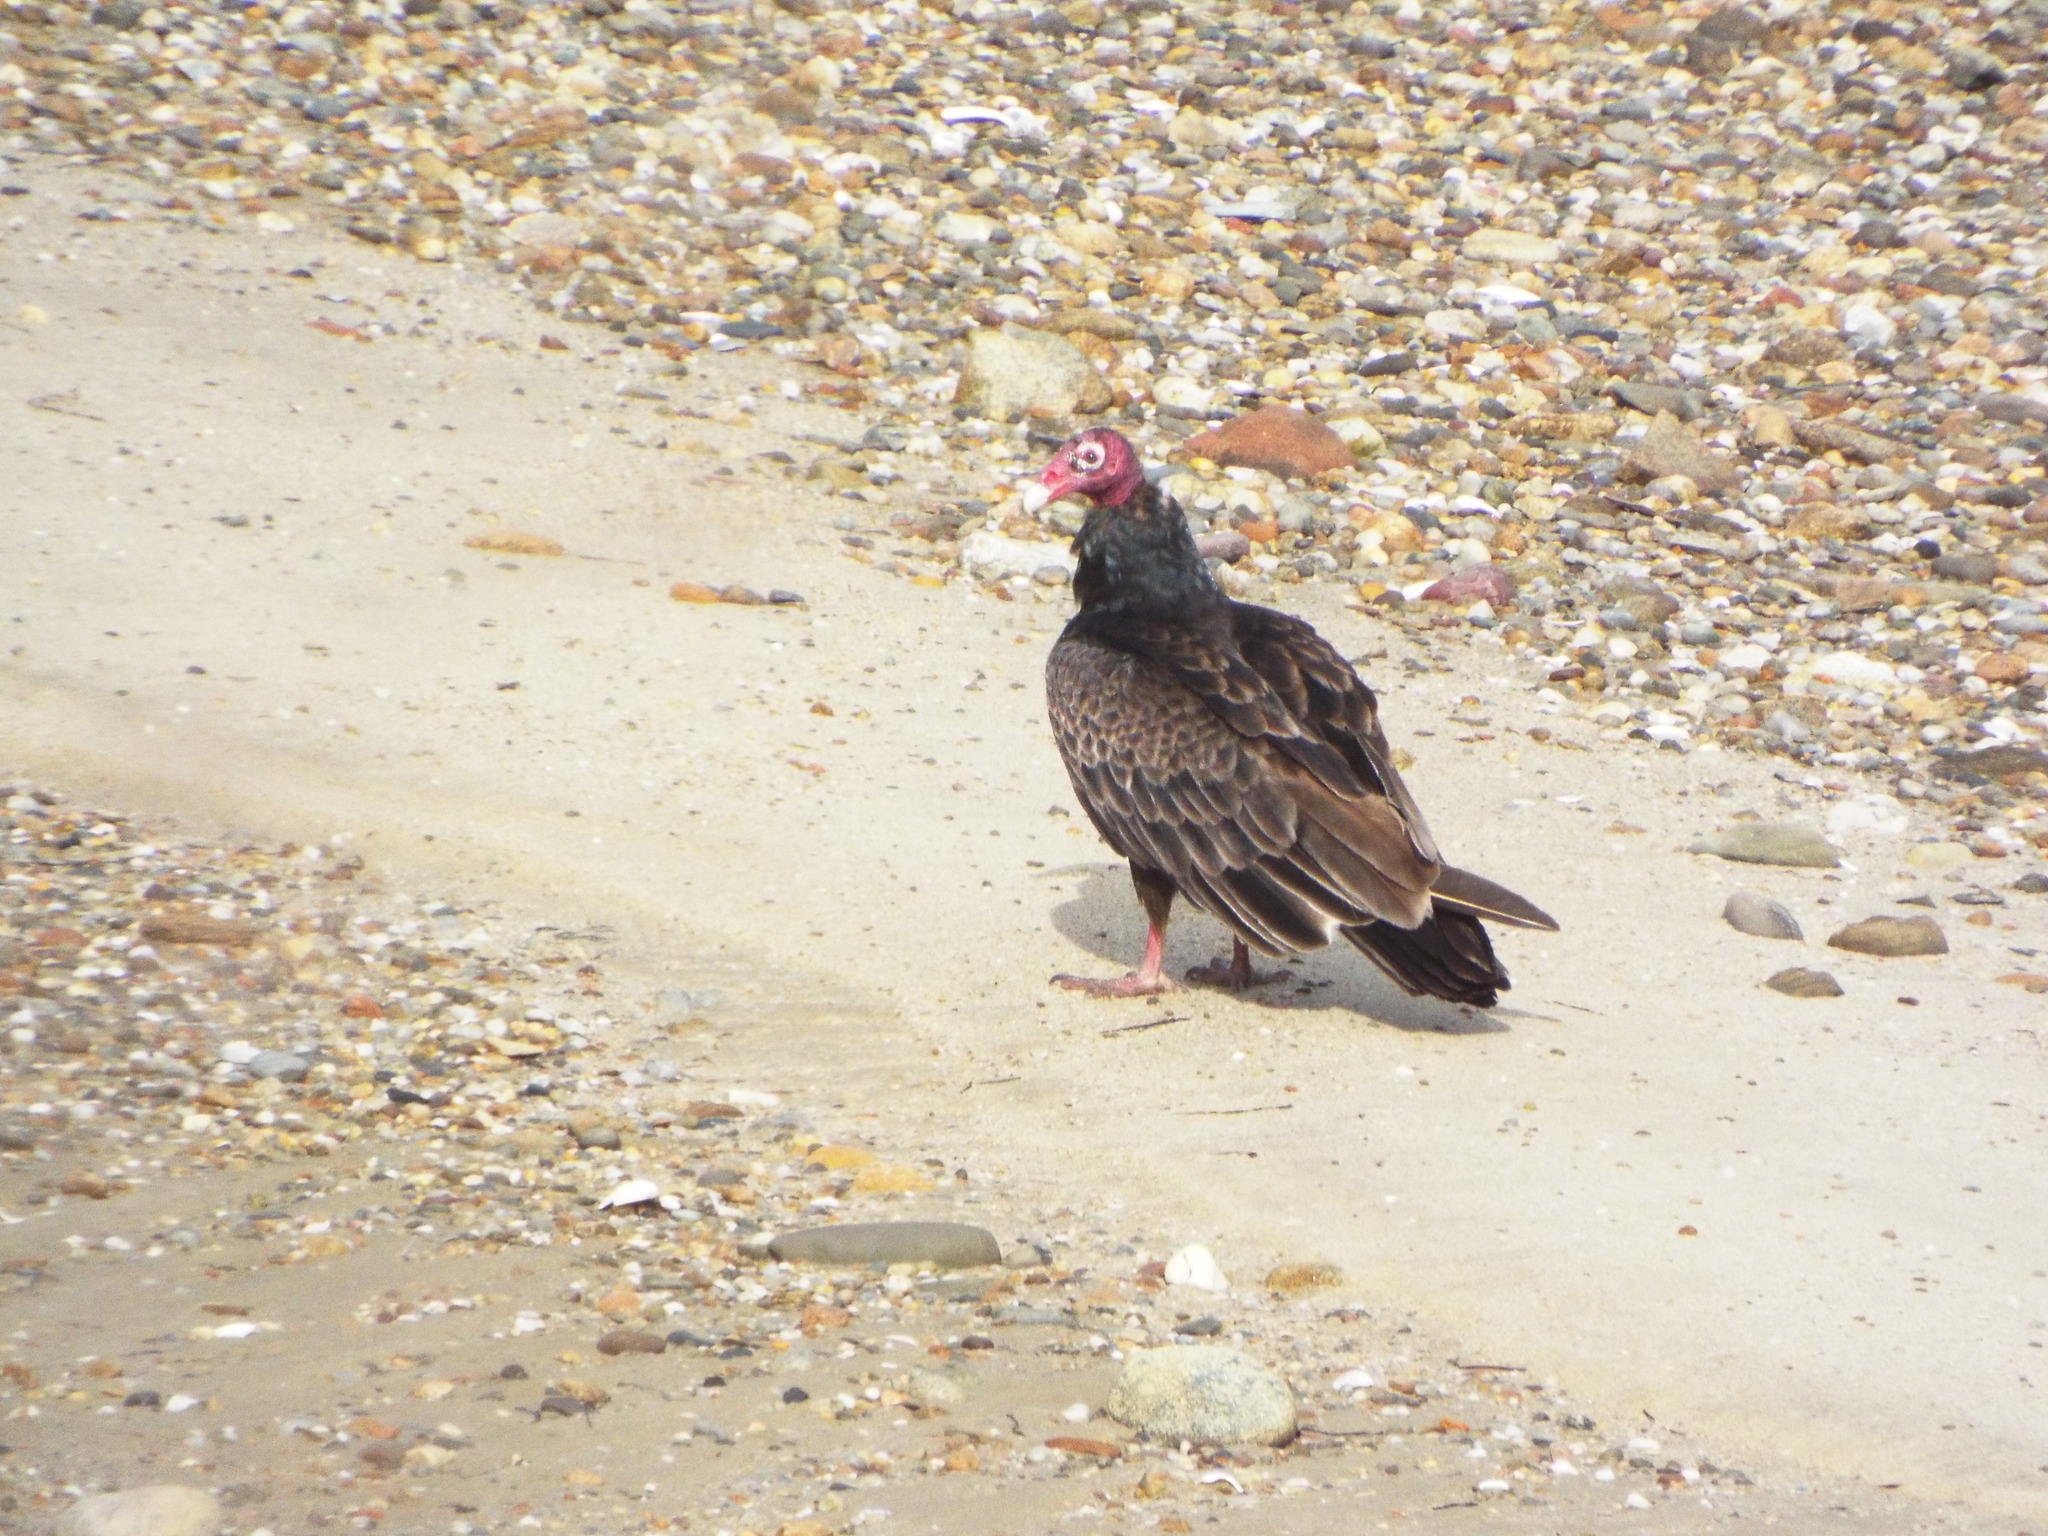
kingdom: Animalia
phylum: Chordata
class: Aves
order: Accipitriformes
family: Cathartidae
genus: Cathartes
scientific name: Cathartes aura
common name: Turkey vulture
